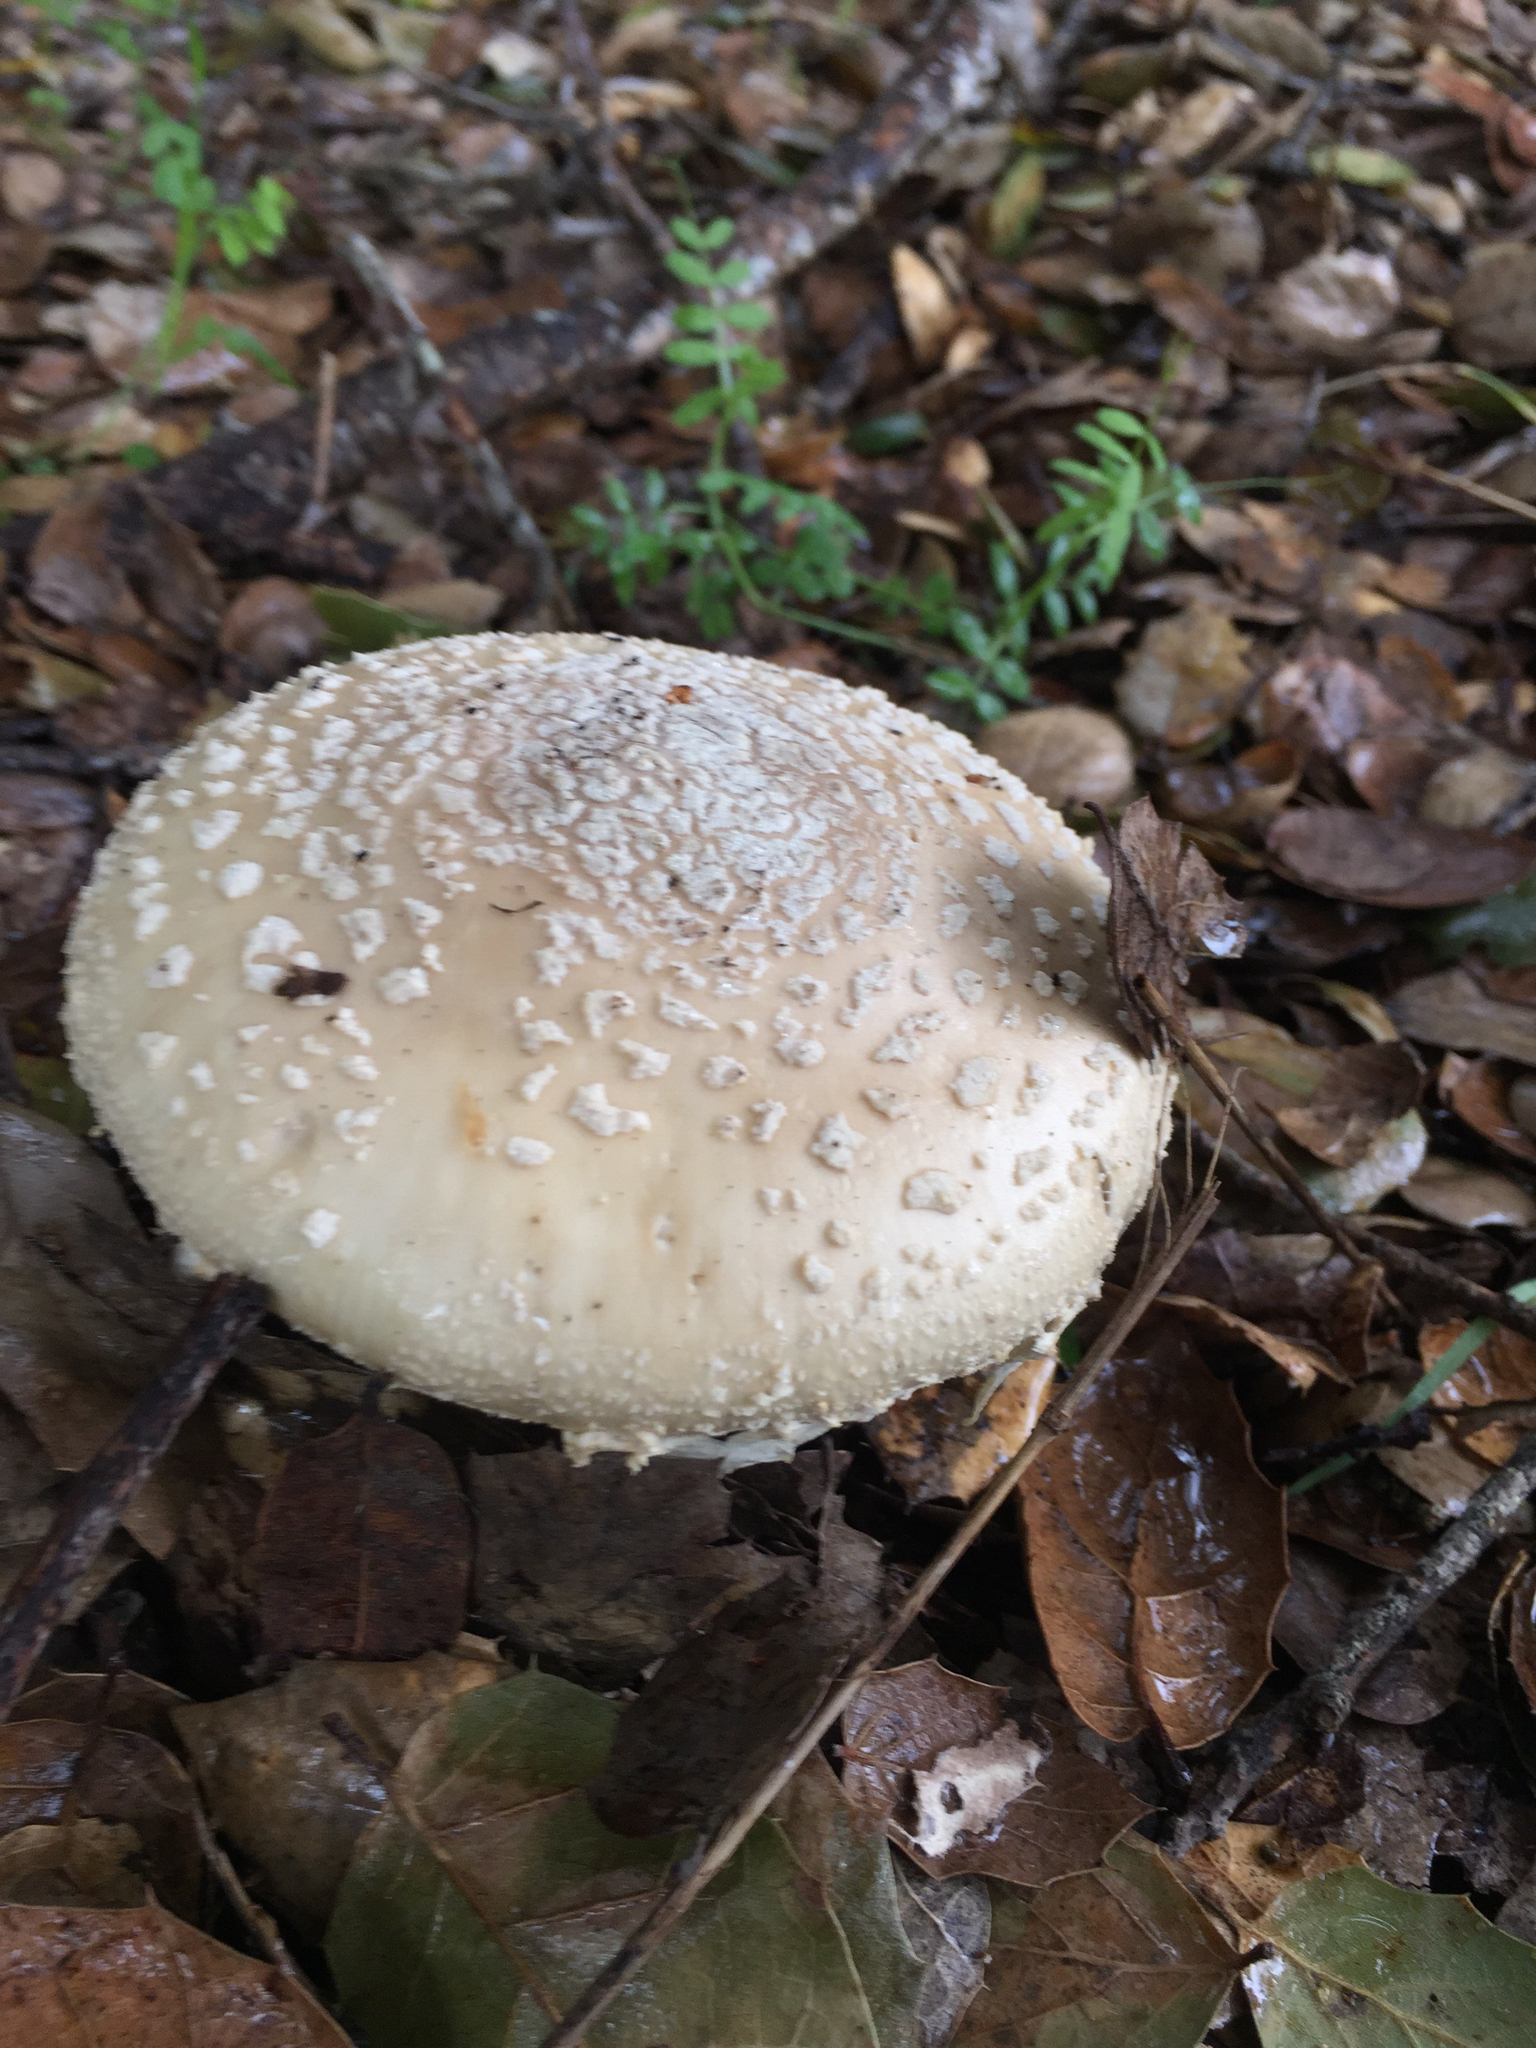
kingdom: Fungi
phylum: Basidiomycota
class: Agaricomycetes
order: Agaricales
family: Amanitaceae
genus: Amanita
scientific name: Amanita pantherina
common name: Panthercap
